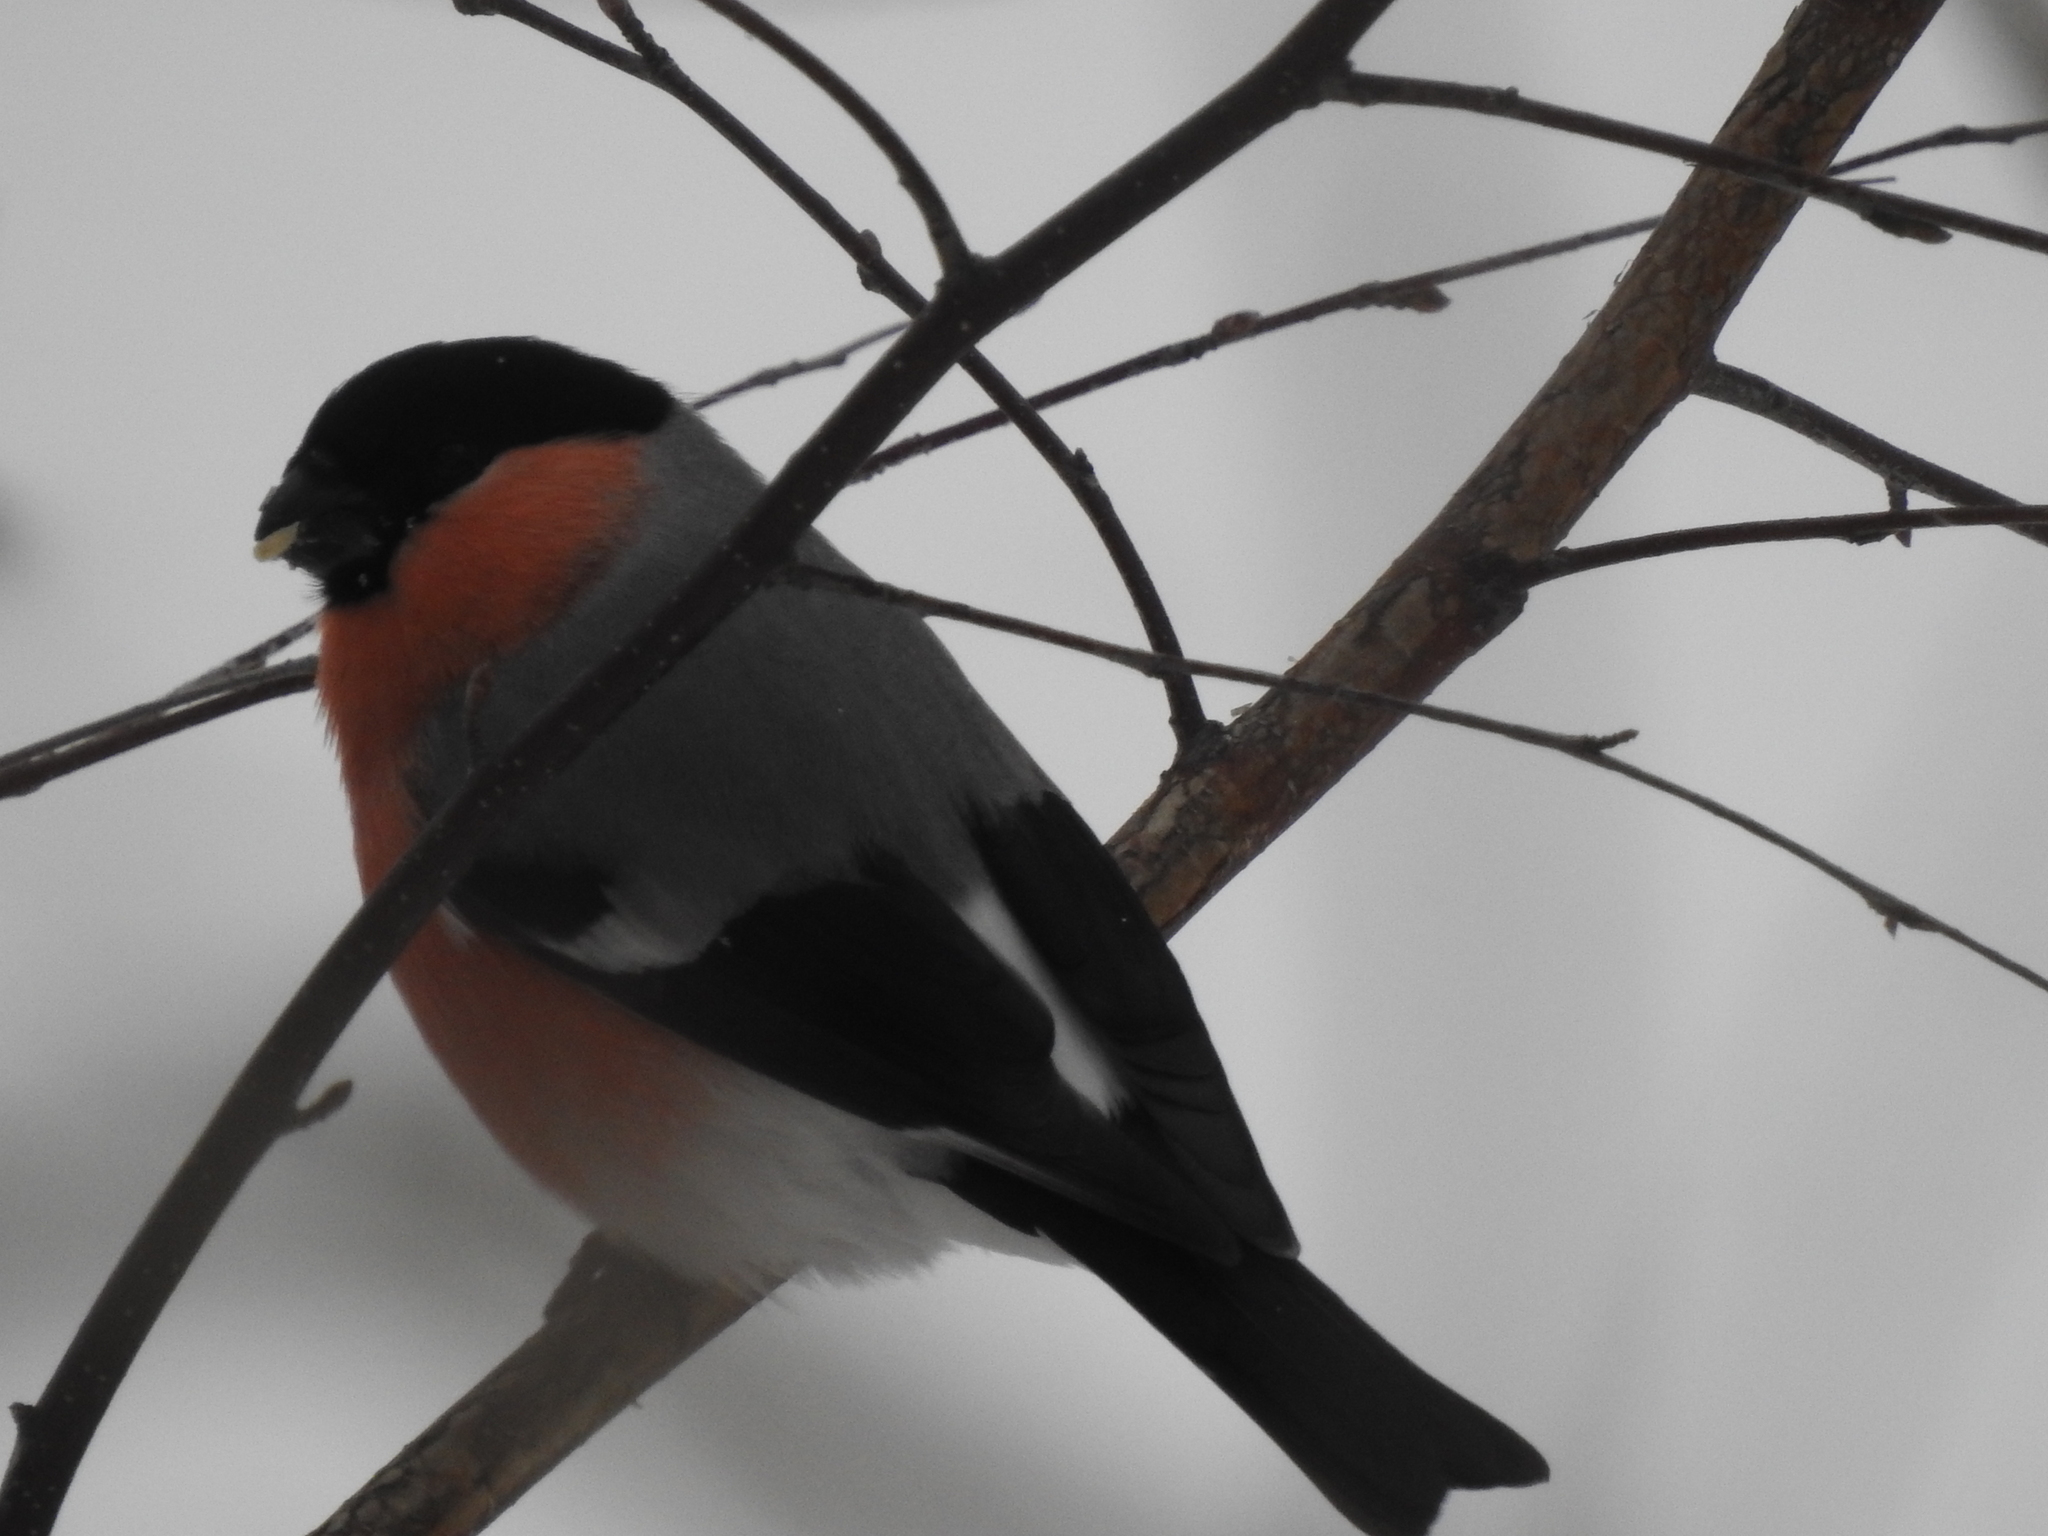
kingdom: Animalia
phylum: Chordata
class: Aves
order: Passeriformes
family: Fringillidae
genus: Pyrrhula
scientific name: Pyrrhula pyrrhula
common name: Eurasian bullfinch
